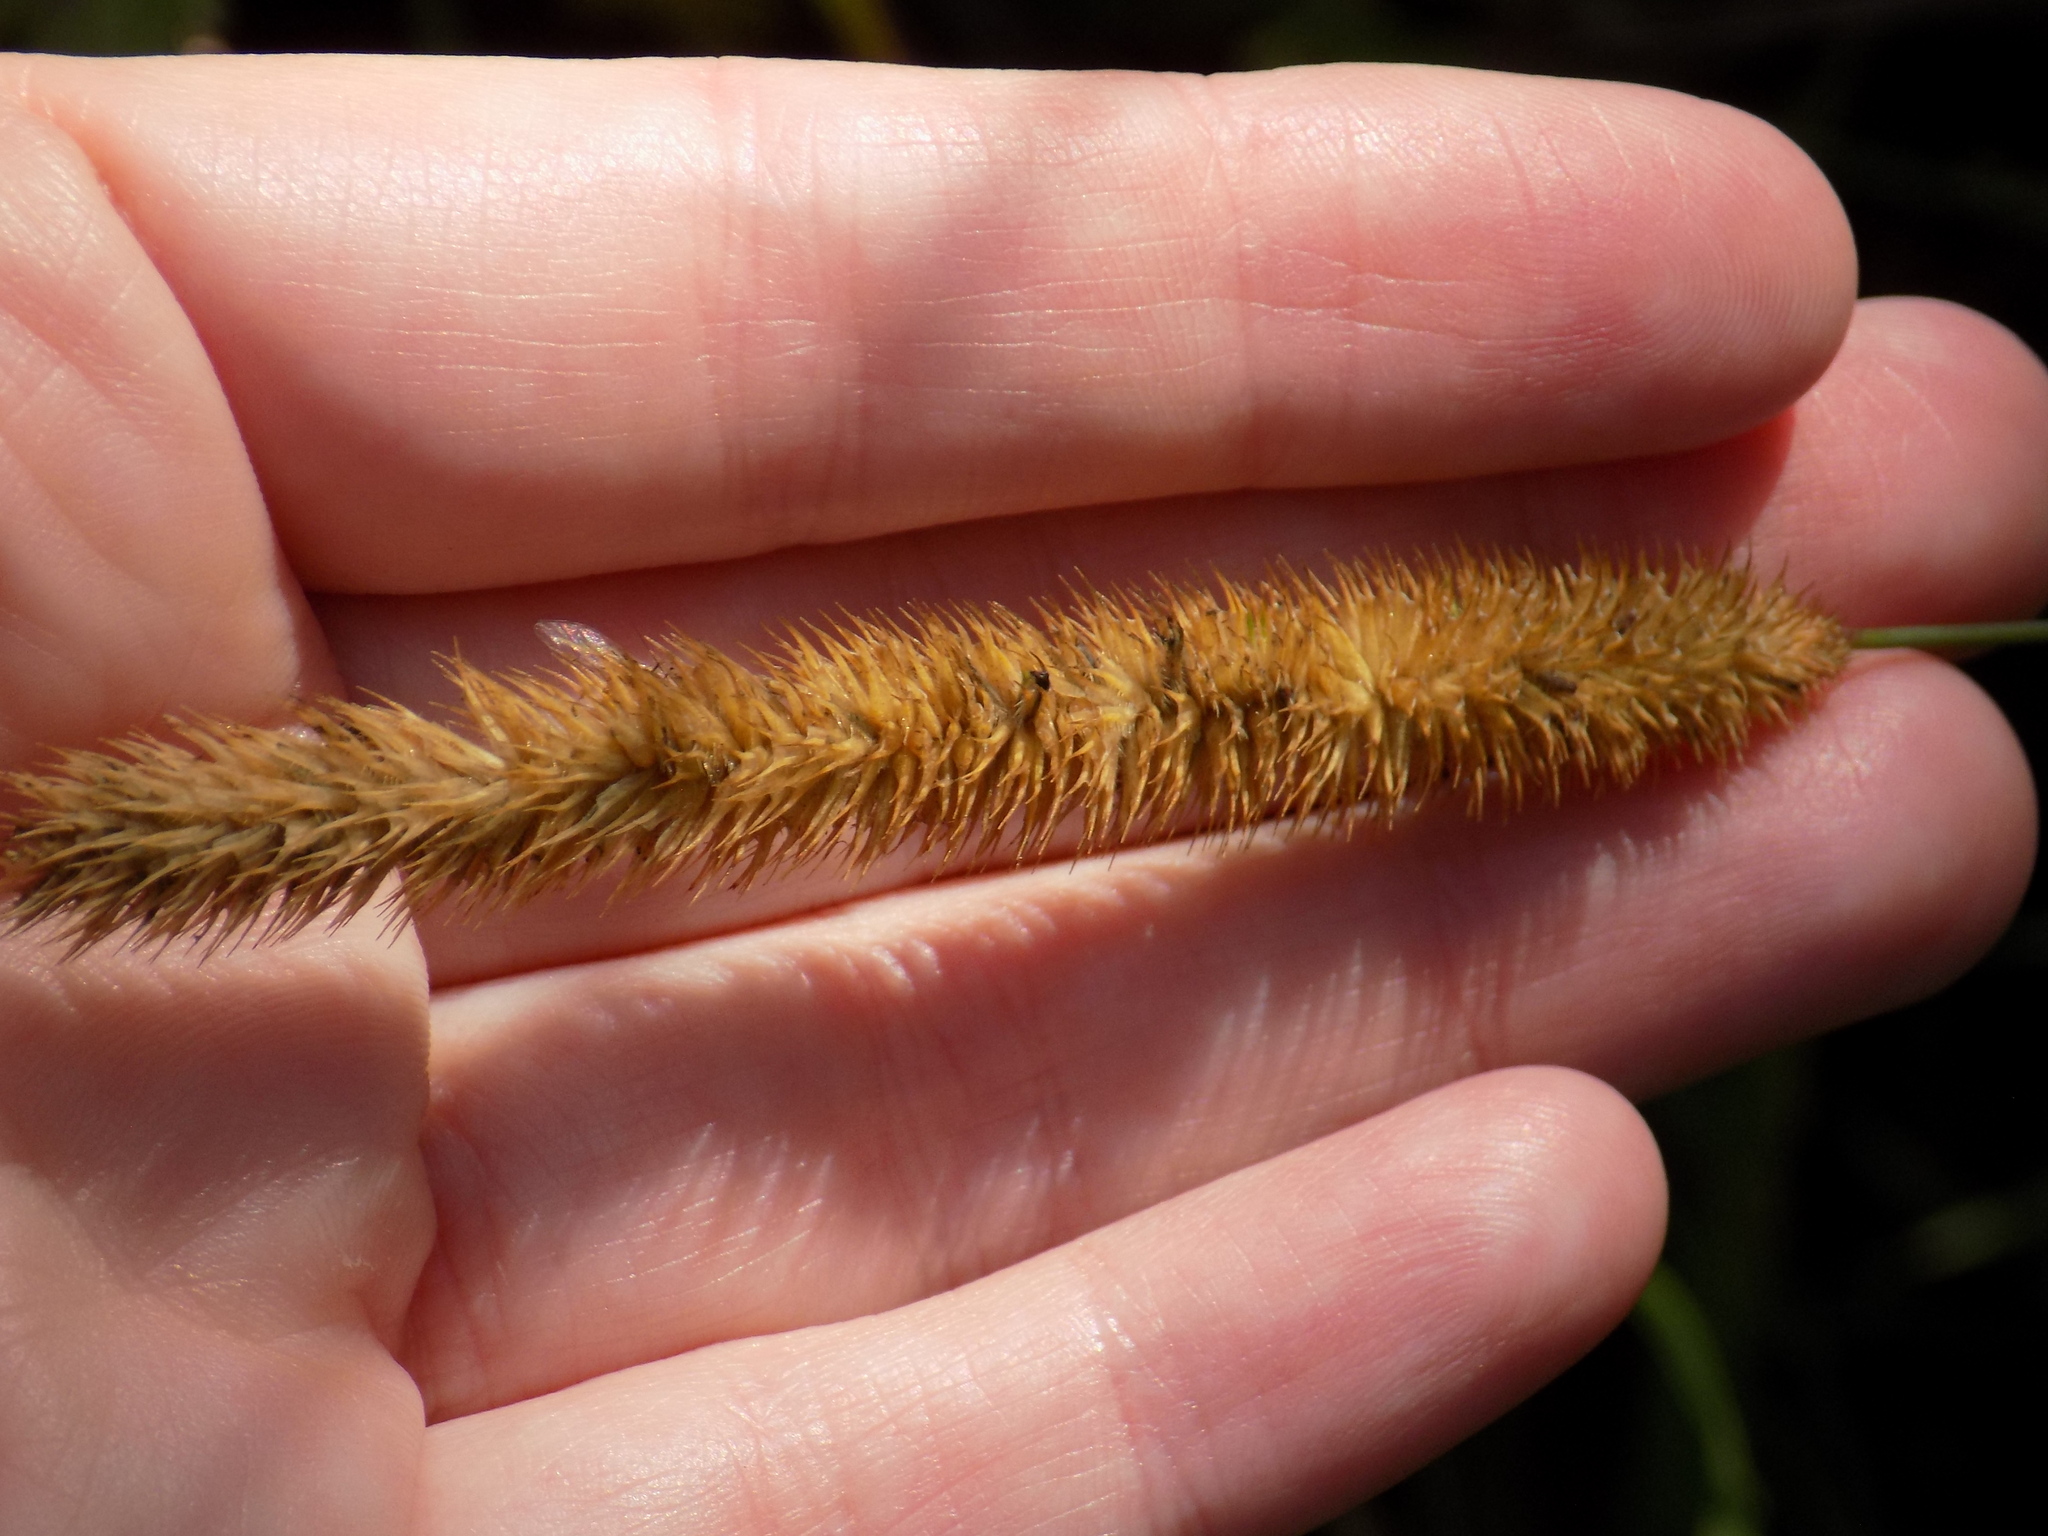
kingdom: Plantae
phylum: Tracheophyta
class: Liliopsida
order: Poales
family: Poaceae
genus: Phleum
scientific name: Phleum pratense
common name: Timothy grass
